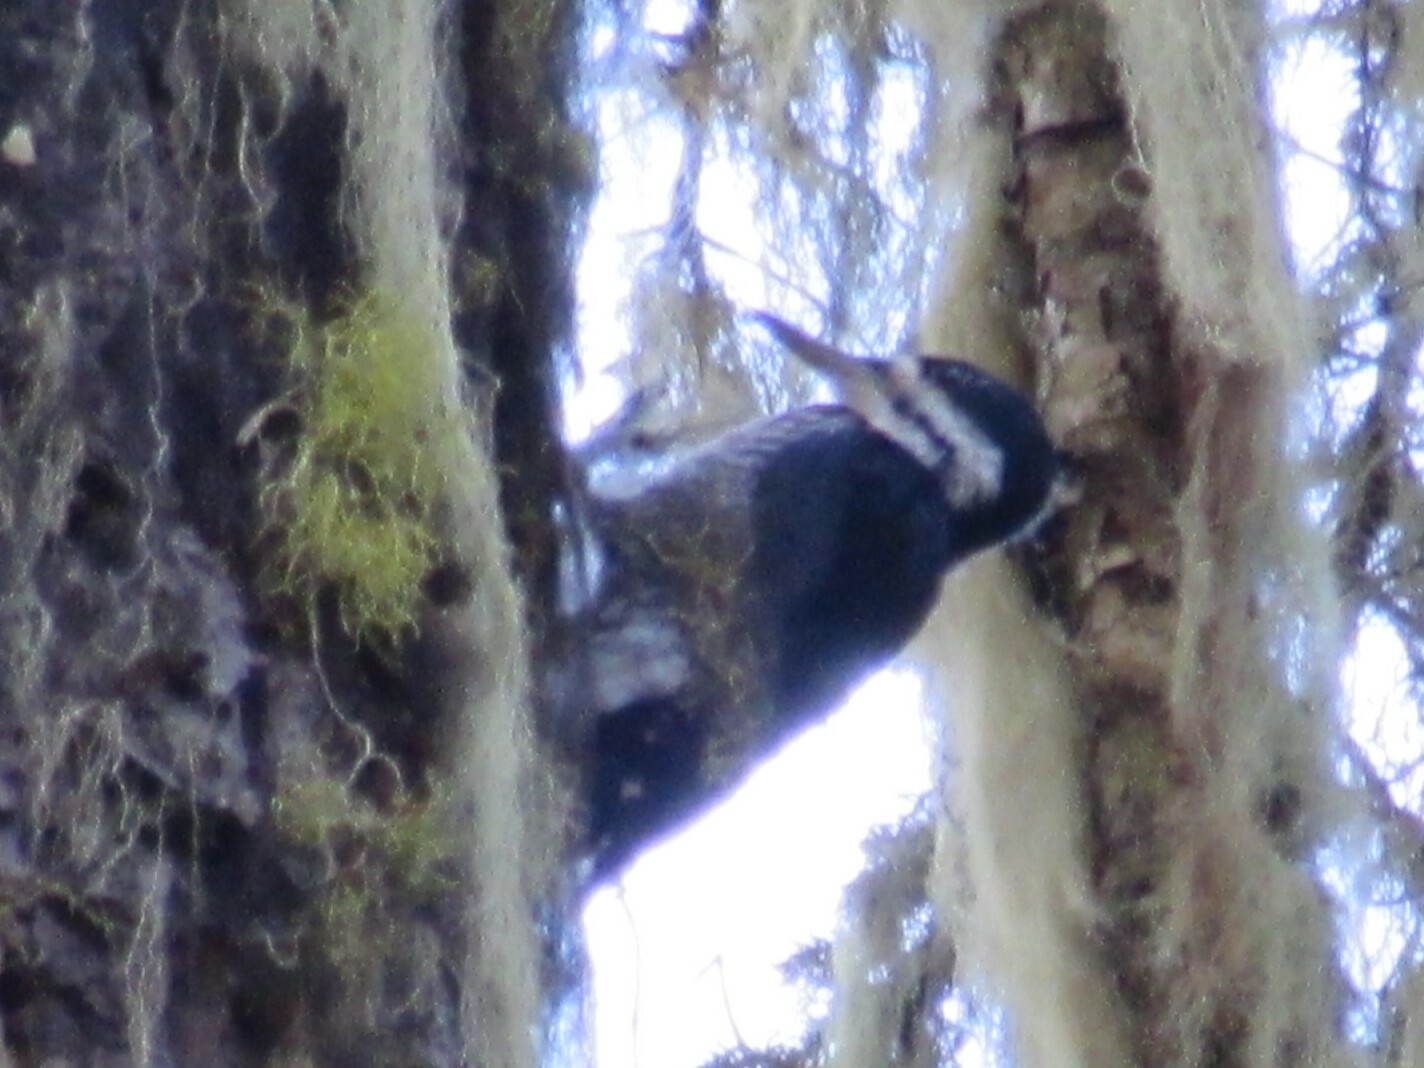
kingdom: Animalia
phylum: Chordata
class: Aves
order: Piciformes
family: Picidae
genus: Picoides
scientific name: Picoides arcticus
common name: Black-backed woodpecker
